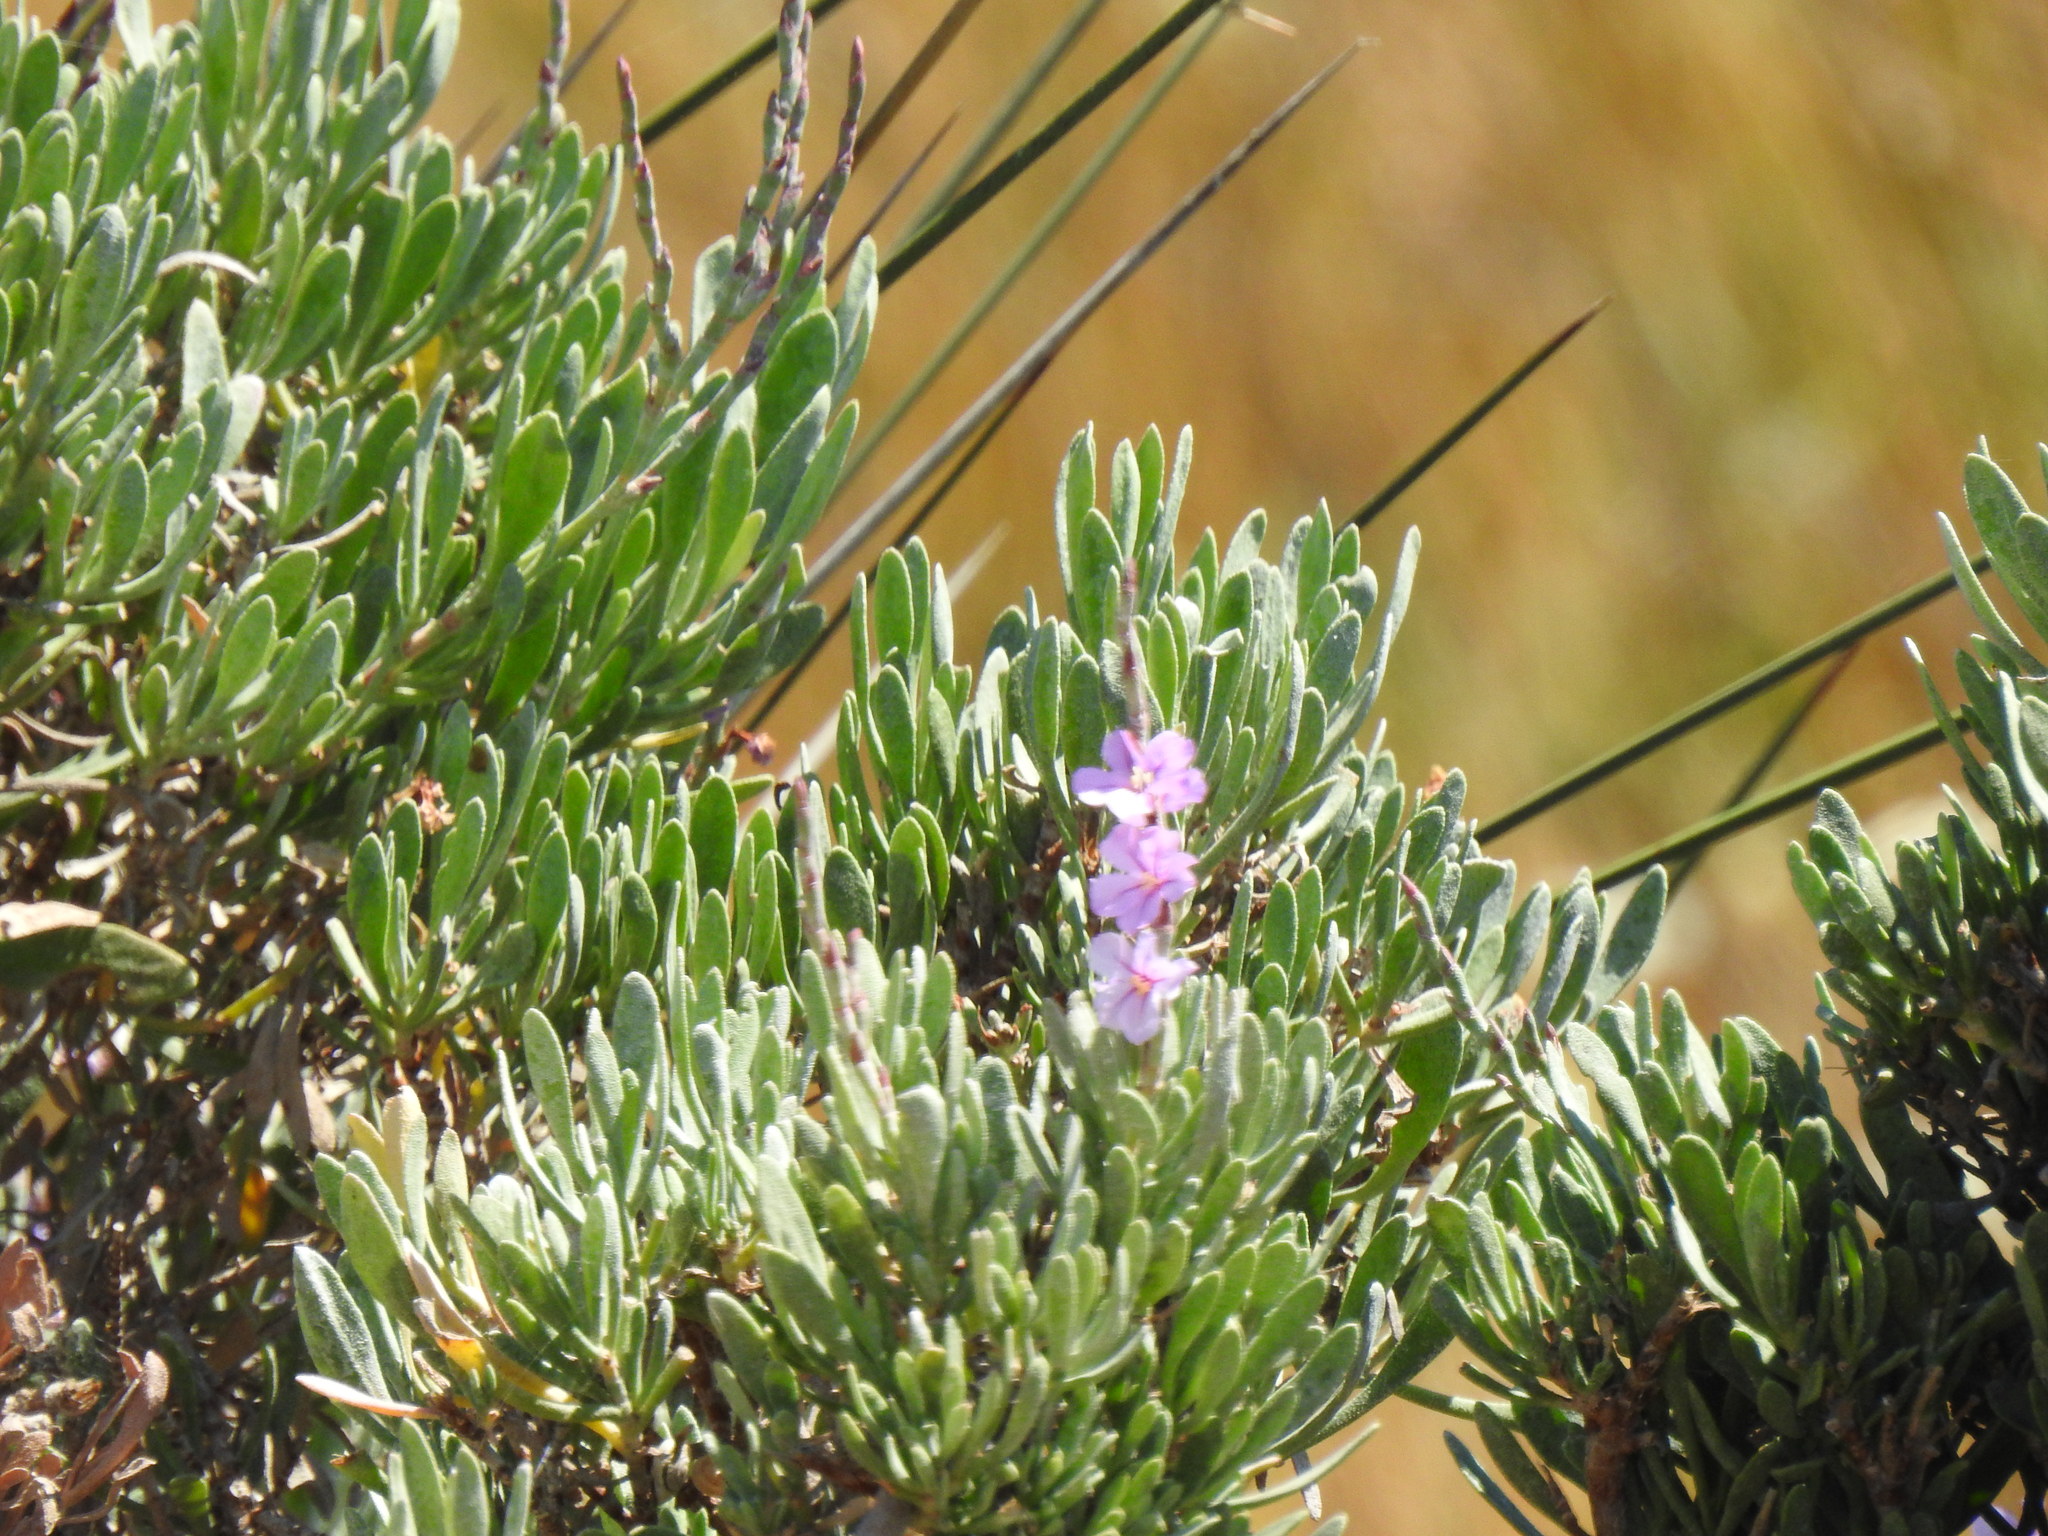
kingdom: Plantae
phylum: Tracheophyta
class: Magnoliopsida
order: Caryophyllales
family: Plumbaginaceae
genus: Limoniastrum
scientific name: Limoniastrum monopetalum
